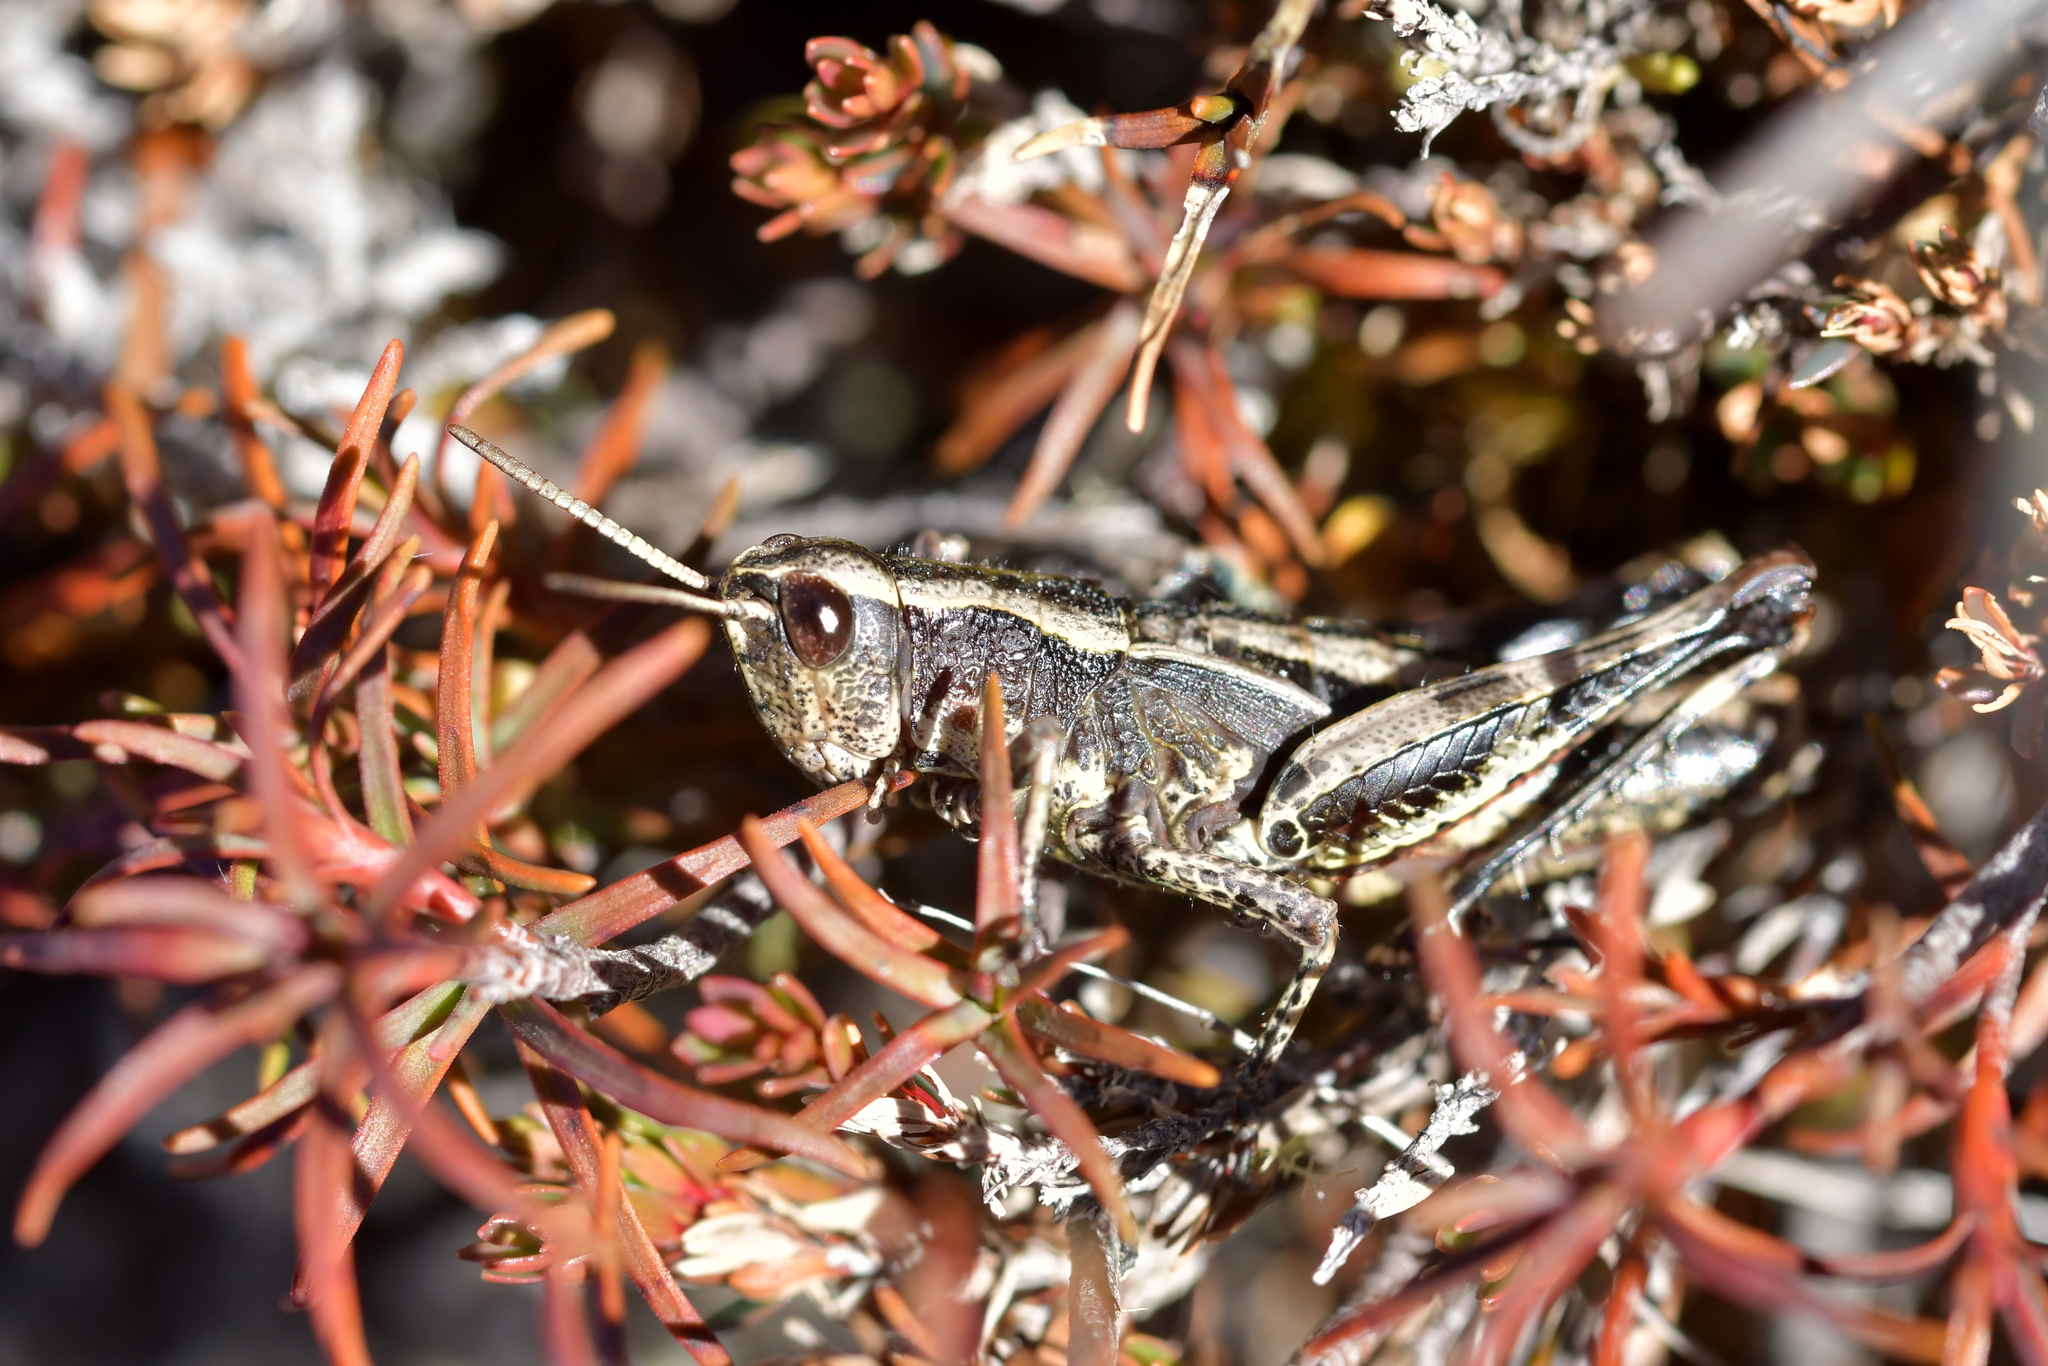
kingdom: Animalia
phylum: Arthropoda
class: Insecta
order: Orthoptera
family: Acrididae
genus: Sigaus
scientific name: Sigaus piliferus
